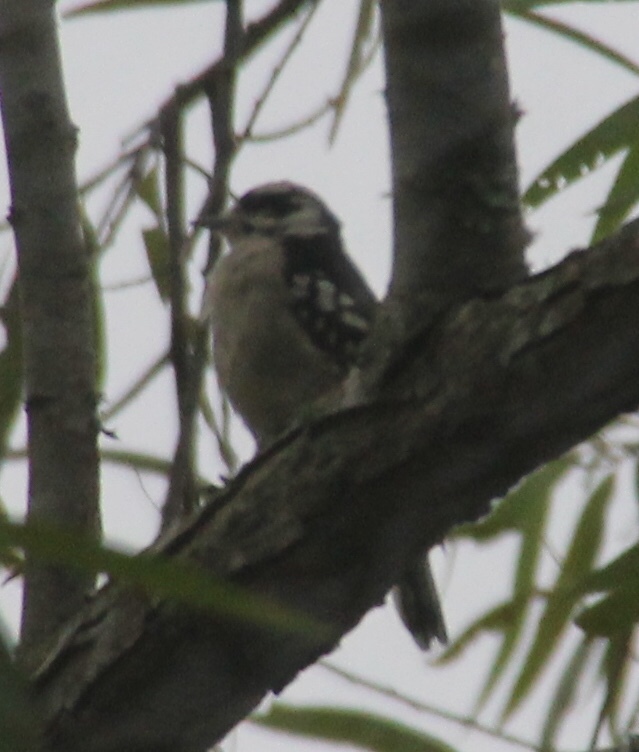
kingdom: Animalia
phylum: Chordata
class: Aves
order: Piciformes
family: Picidae
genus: Dryobates
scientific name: Dryobates pubescens
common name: Downy woodpecker
